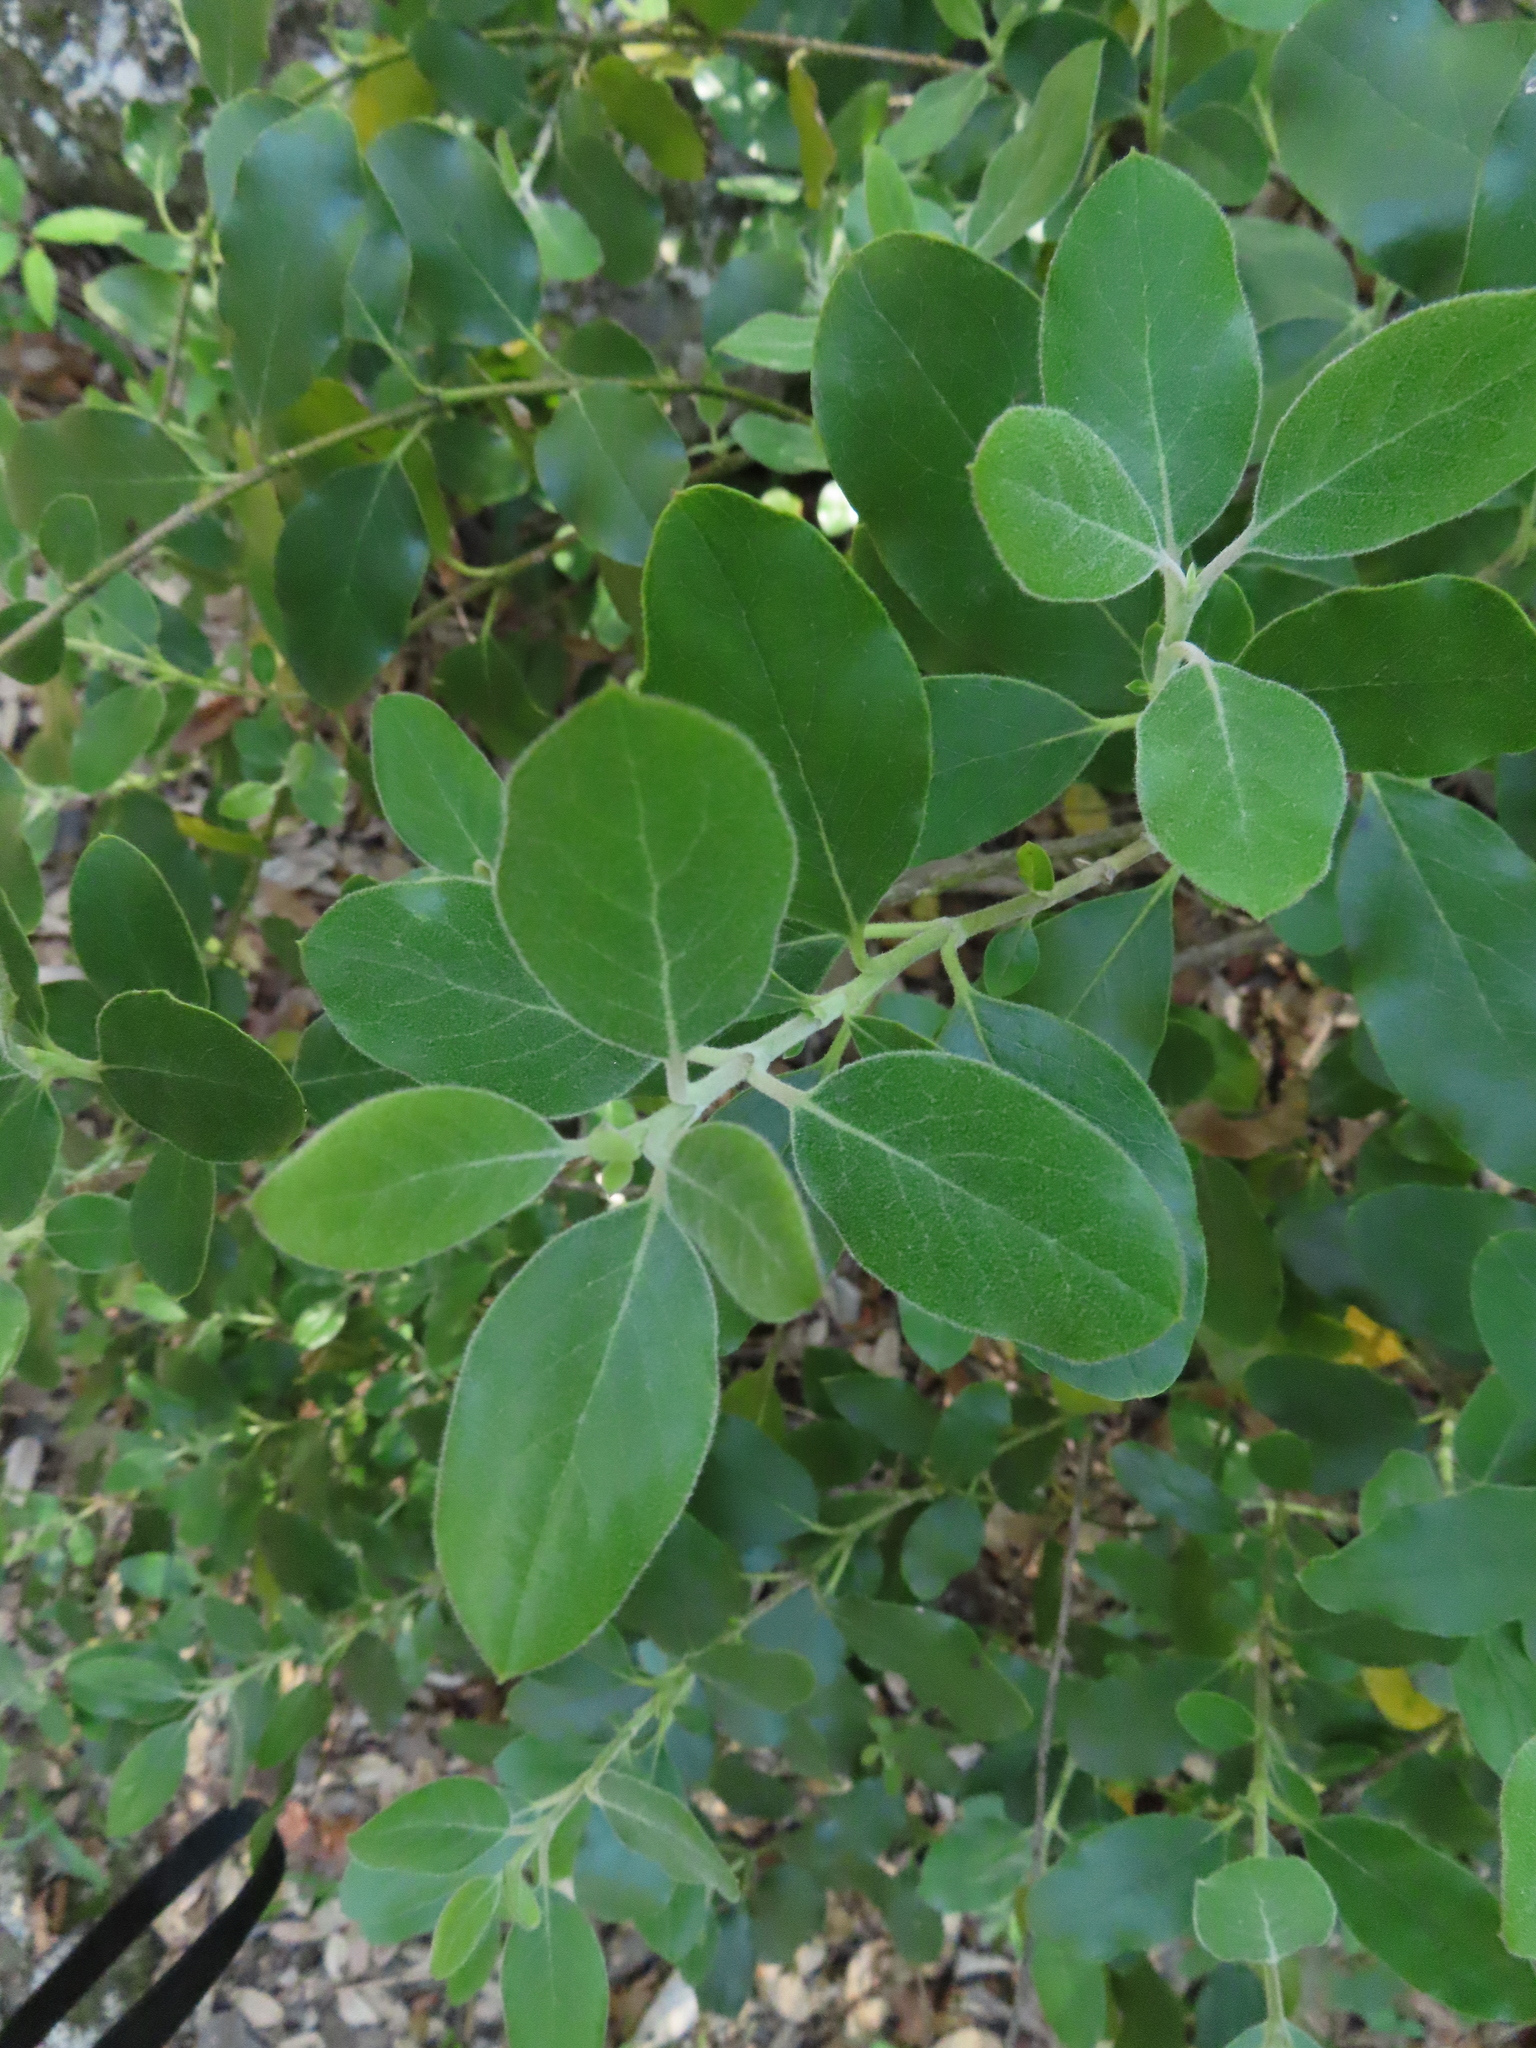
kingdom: Plantae
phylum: Tracheophyta
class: Magnoliopsida
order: Garryales
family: Garryaceae
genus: Garrya
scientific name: Garrya lindheimeri
